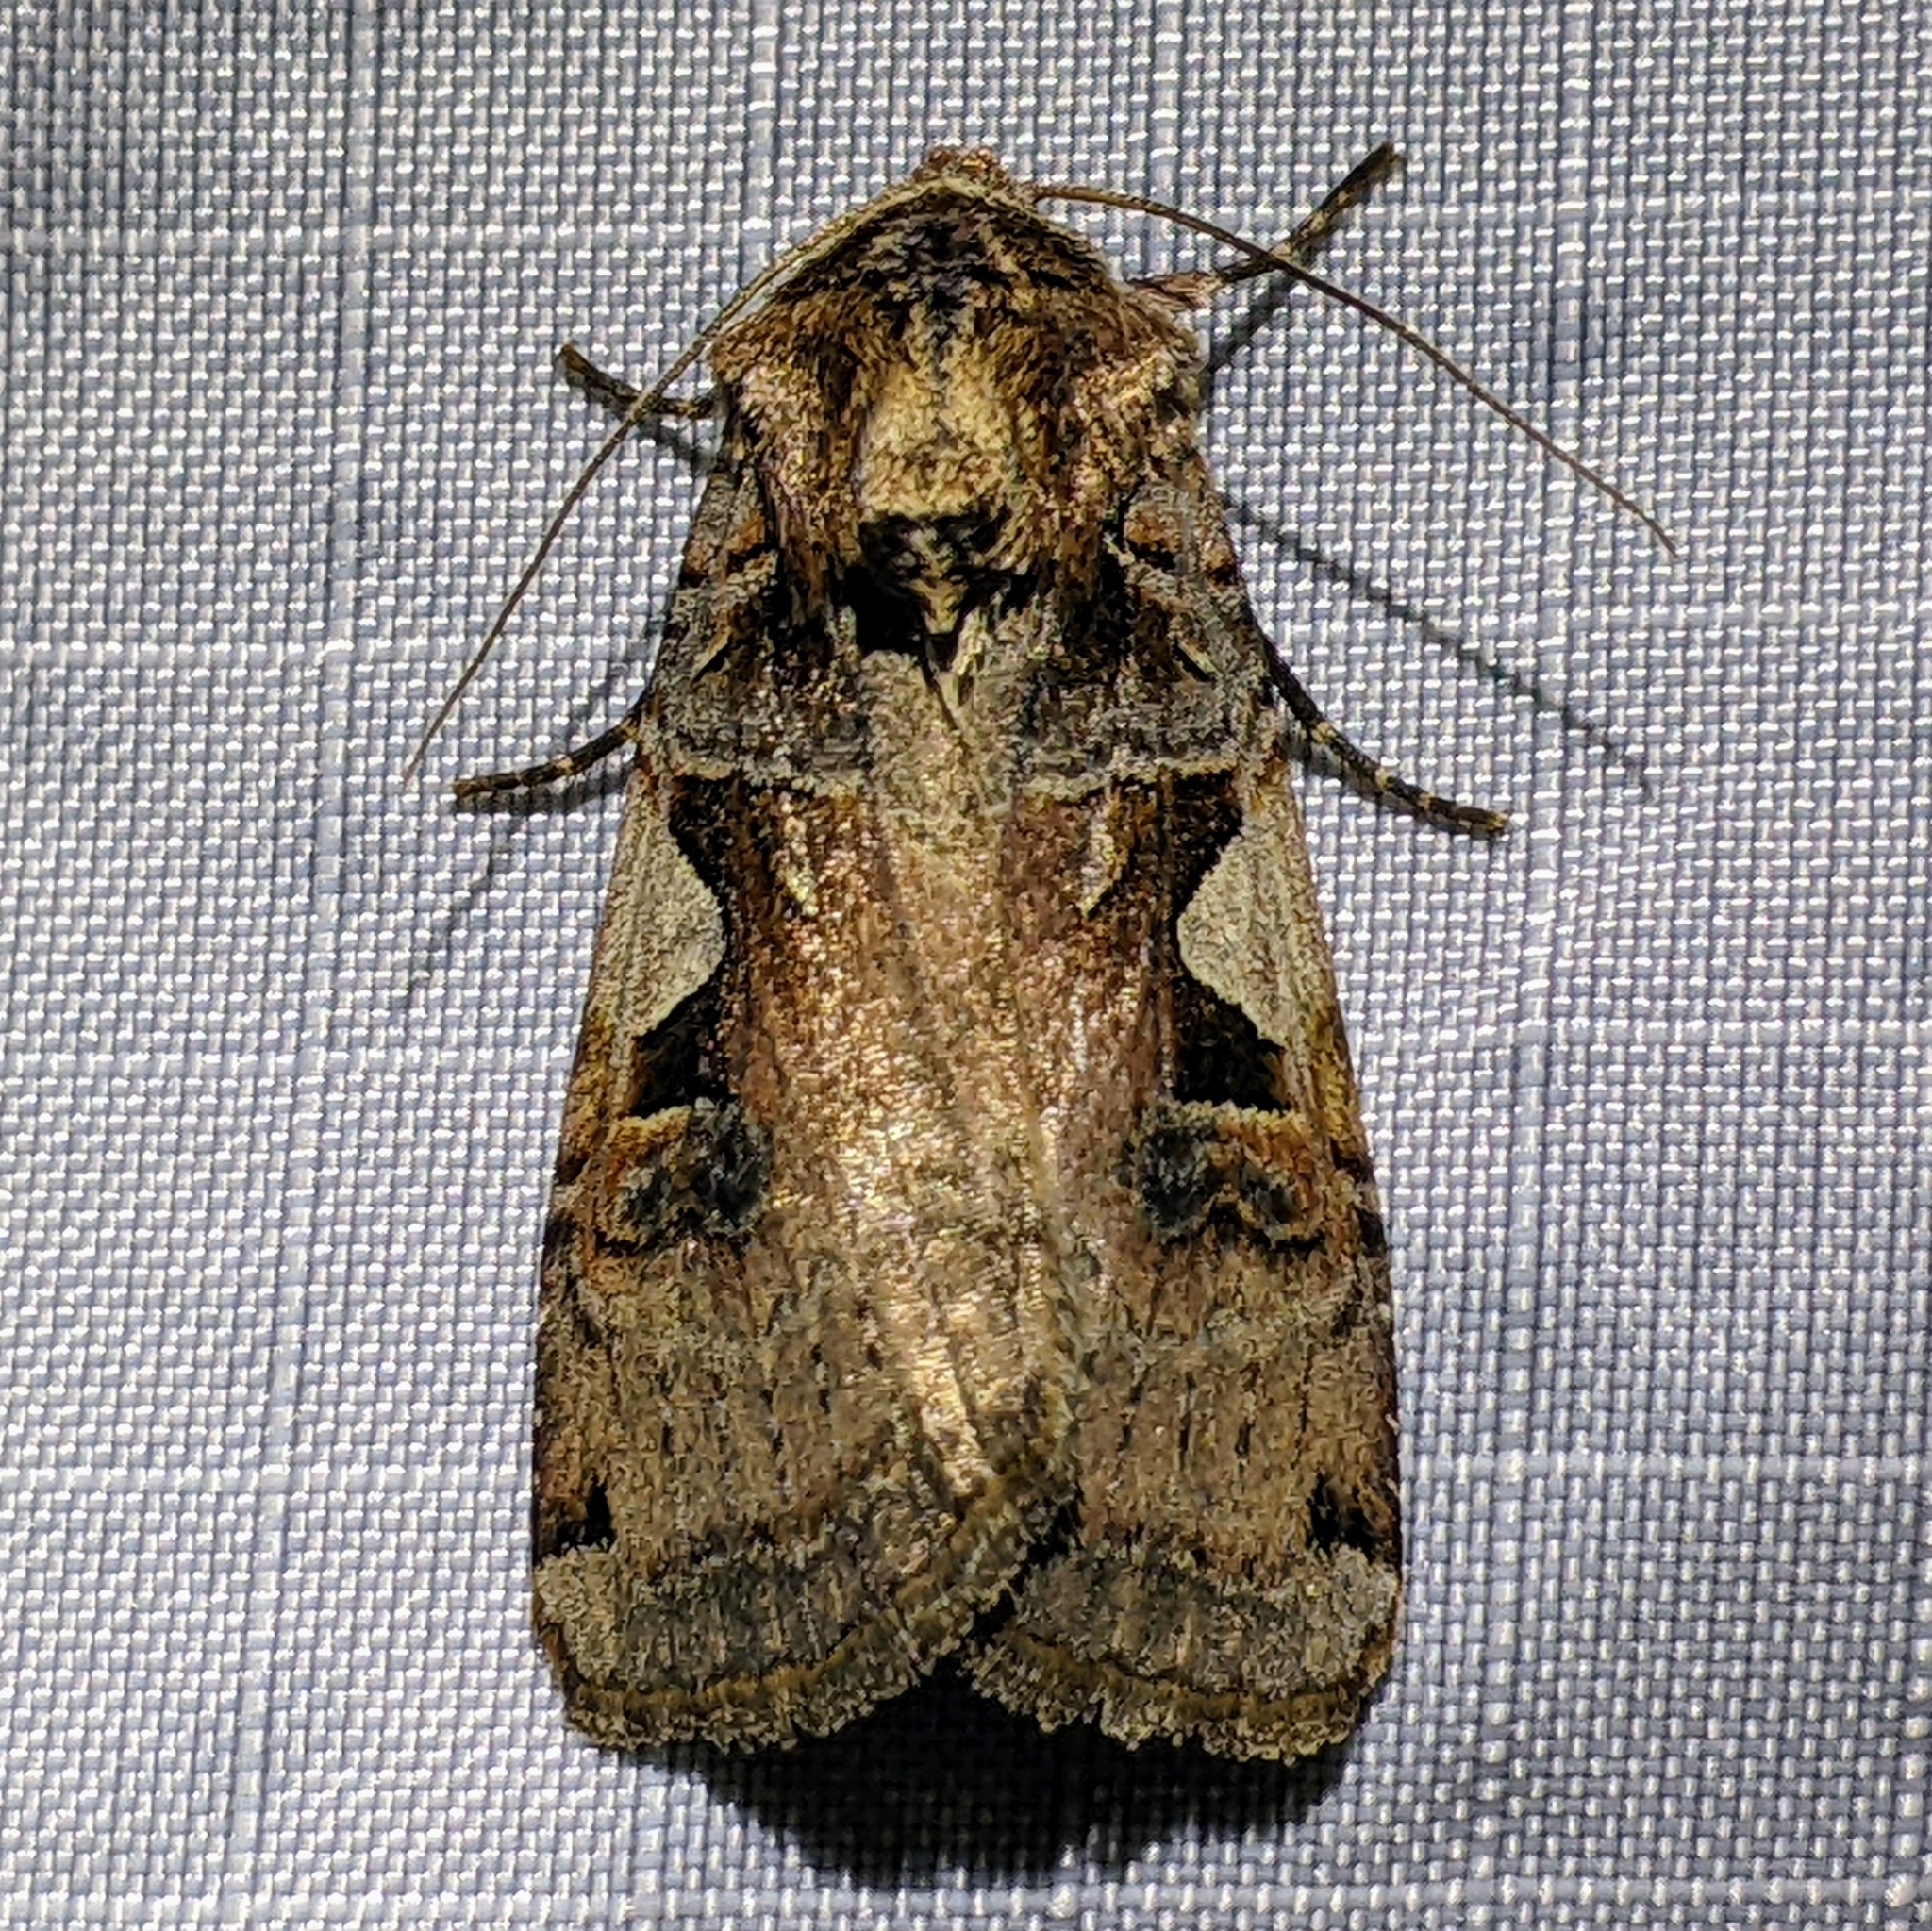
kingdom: Animalia
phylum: Arthropoda
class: Insecta
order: Lepidoptera
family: Noctuidae
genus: Xestia
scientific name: Xestia c-nigrum
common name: Setaceous hebrew character
